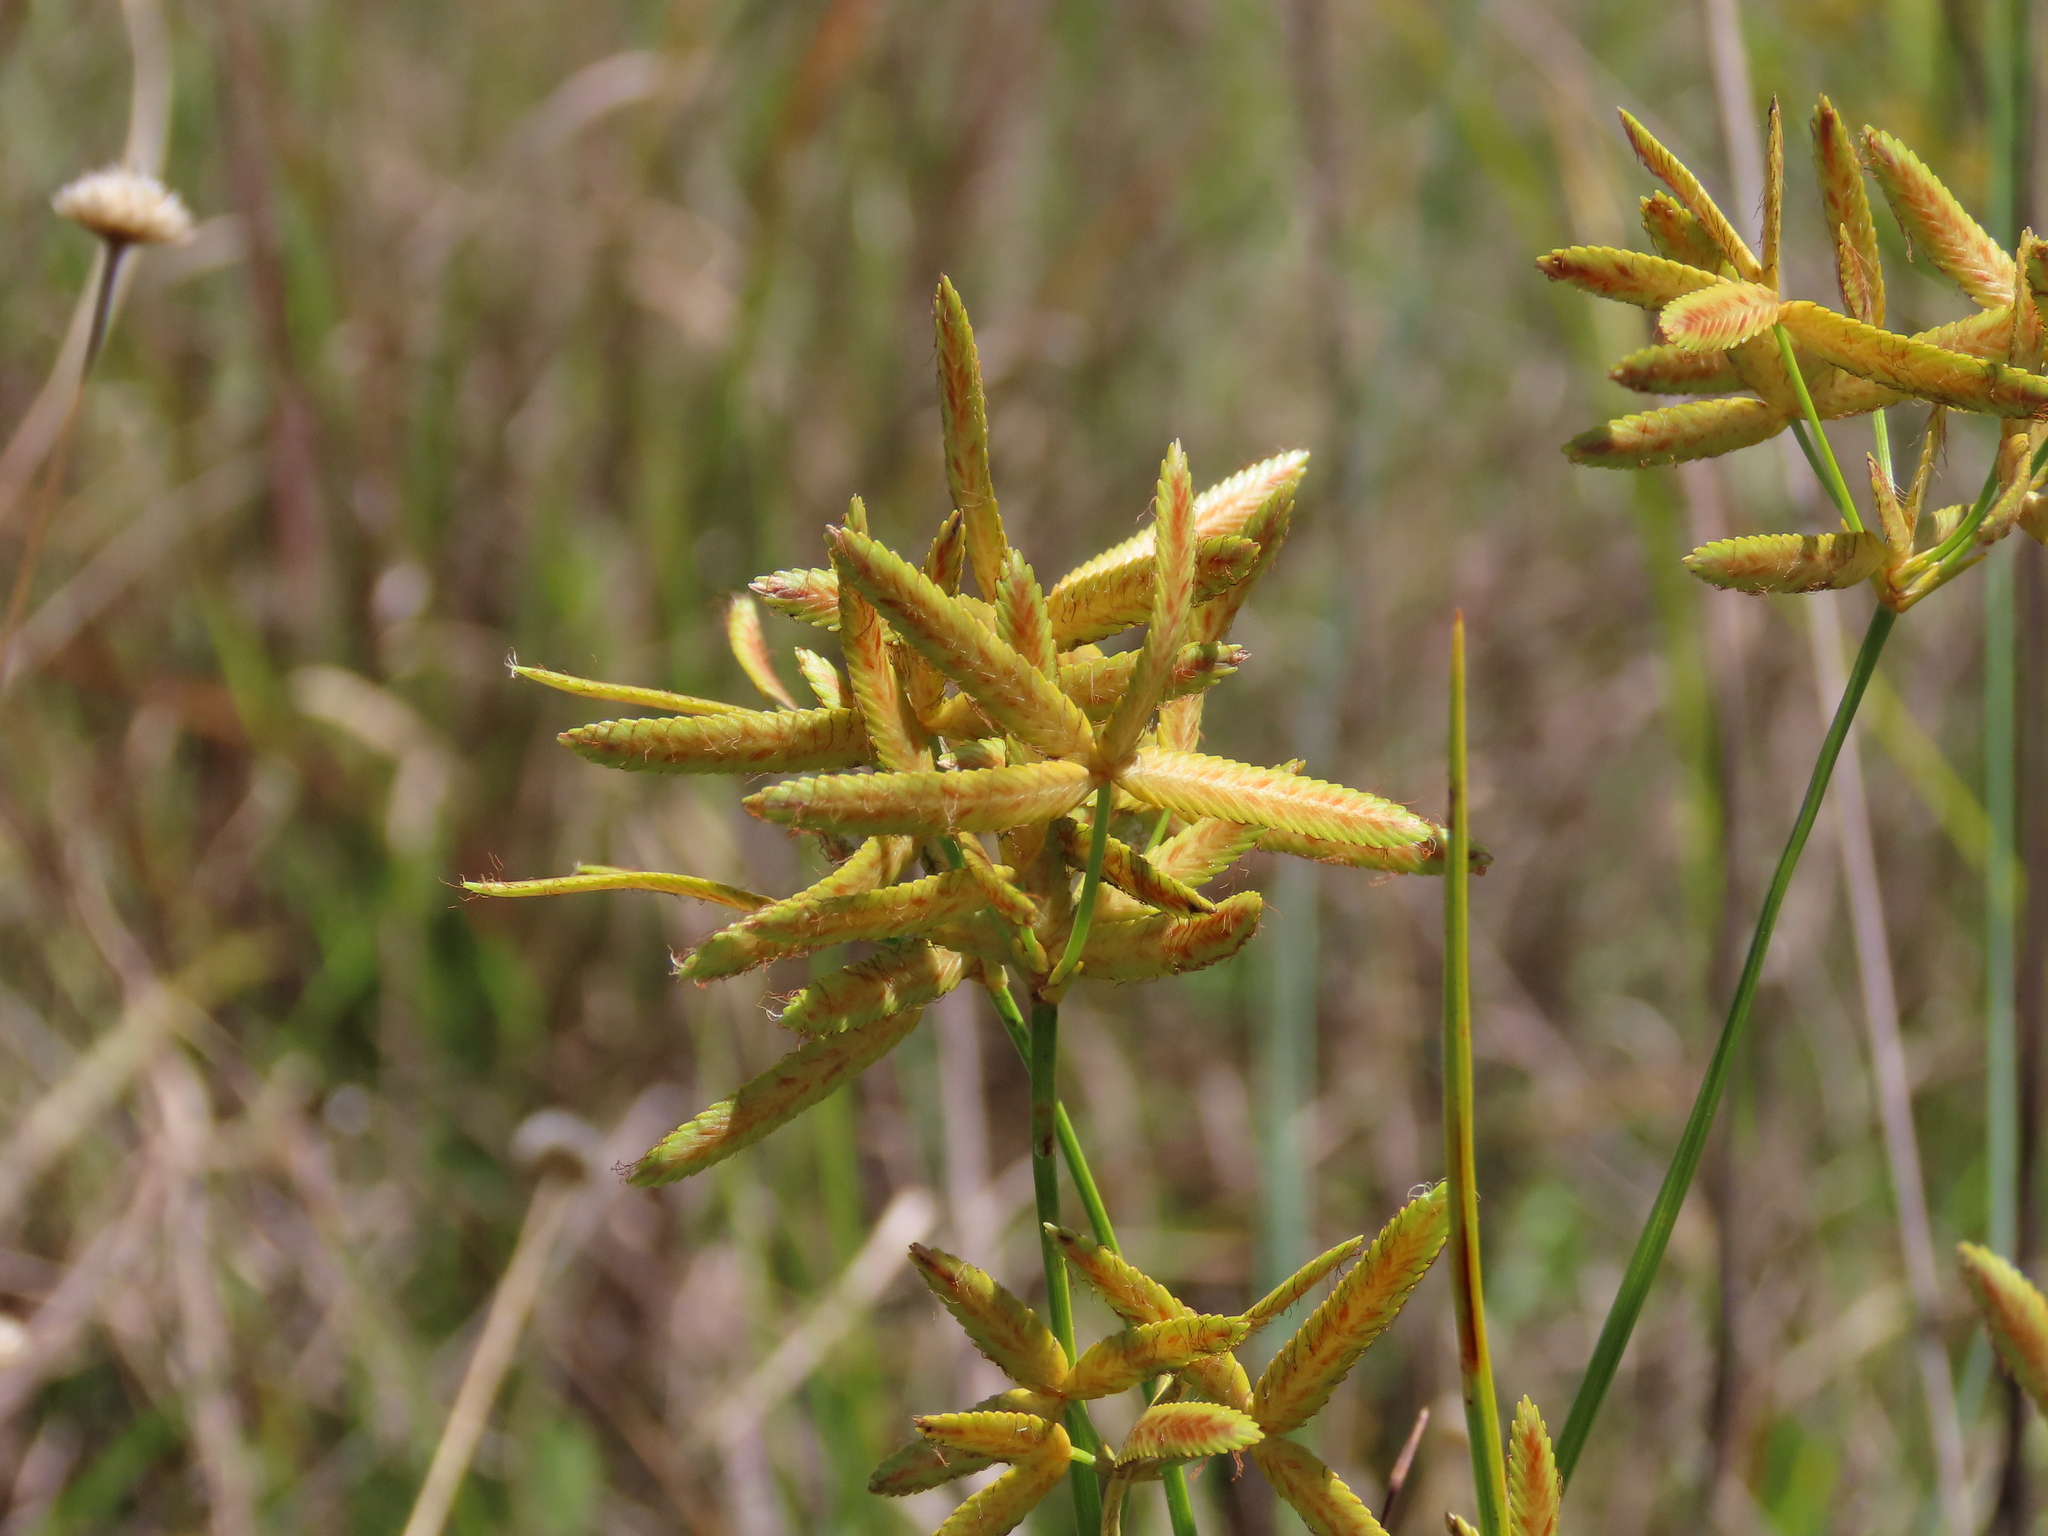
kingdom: Plantae
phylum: Tracheophyta
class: Liliopsida
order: Poales
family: Cyperaceae
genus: Cyperus
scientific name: Cyperus lecontei
